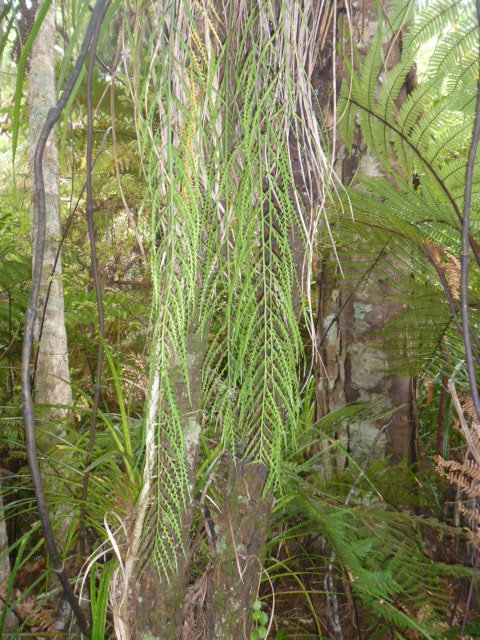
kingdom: Plantae
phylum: Tracheophyta
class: Polypodiopsida
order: Polypodiales
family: Aspleniaceae
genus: Asplenium
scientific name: Asplenium flaccidum
